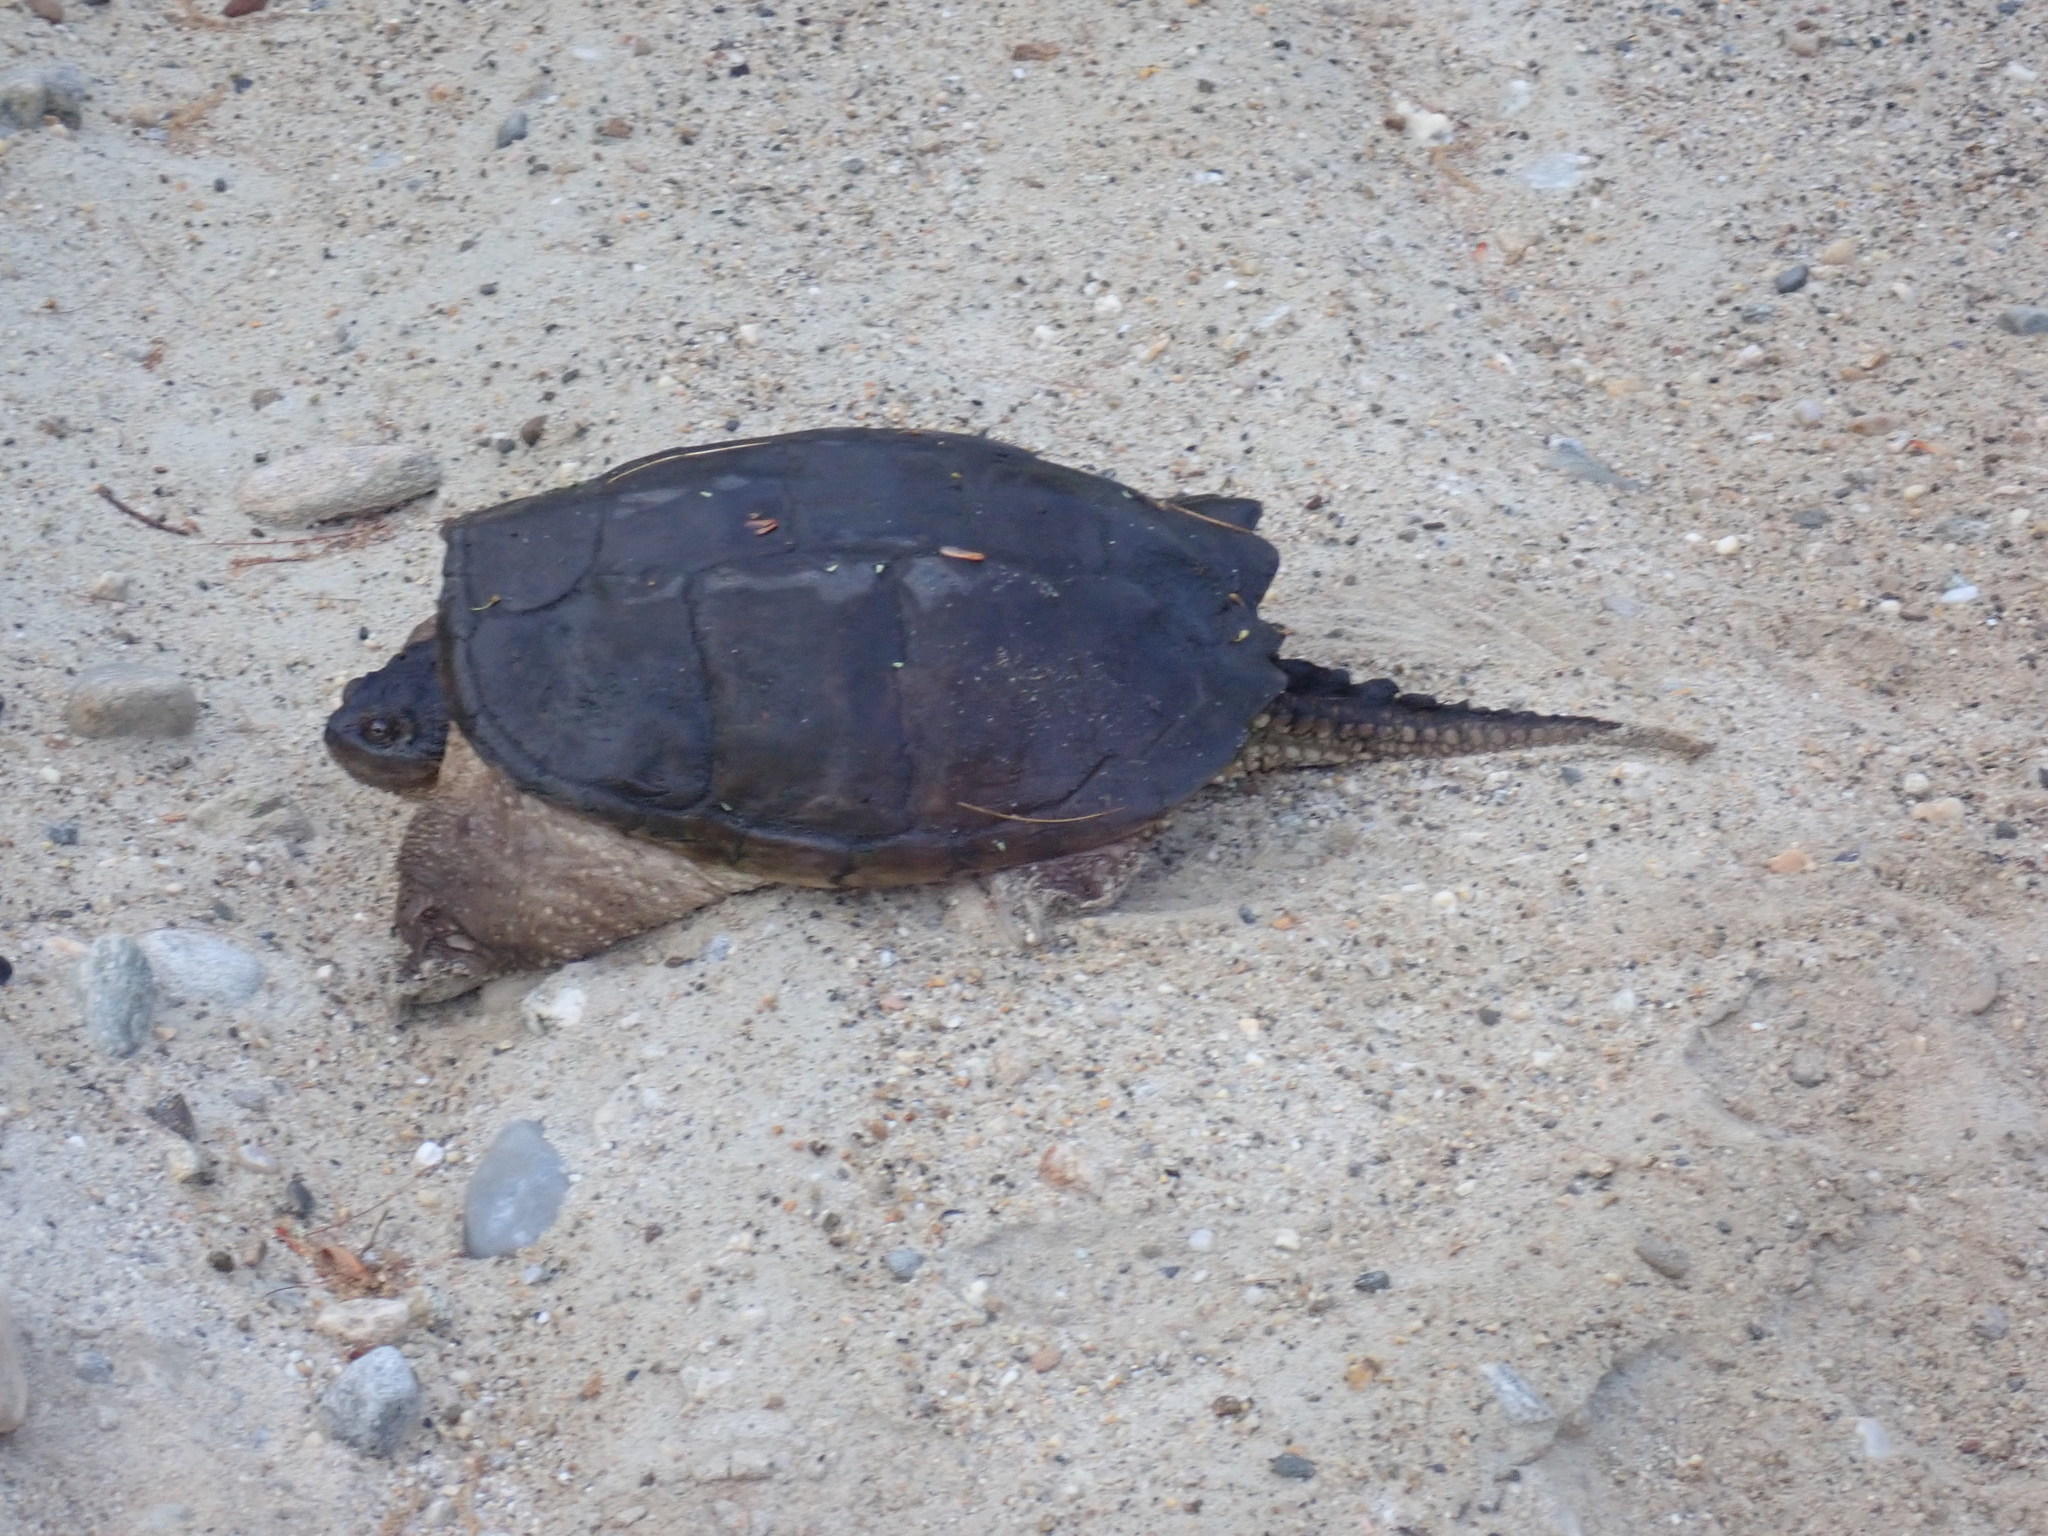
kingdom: Animalia
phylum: Chordata
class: Testudines
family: Chelydridae
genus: Chelydra
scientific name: Chelydra serpentina
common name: Common snapping turtle
